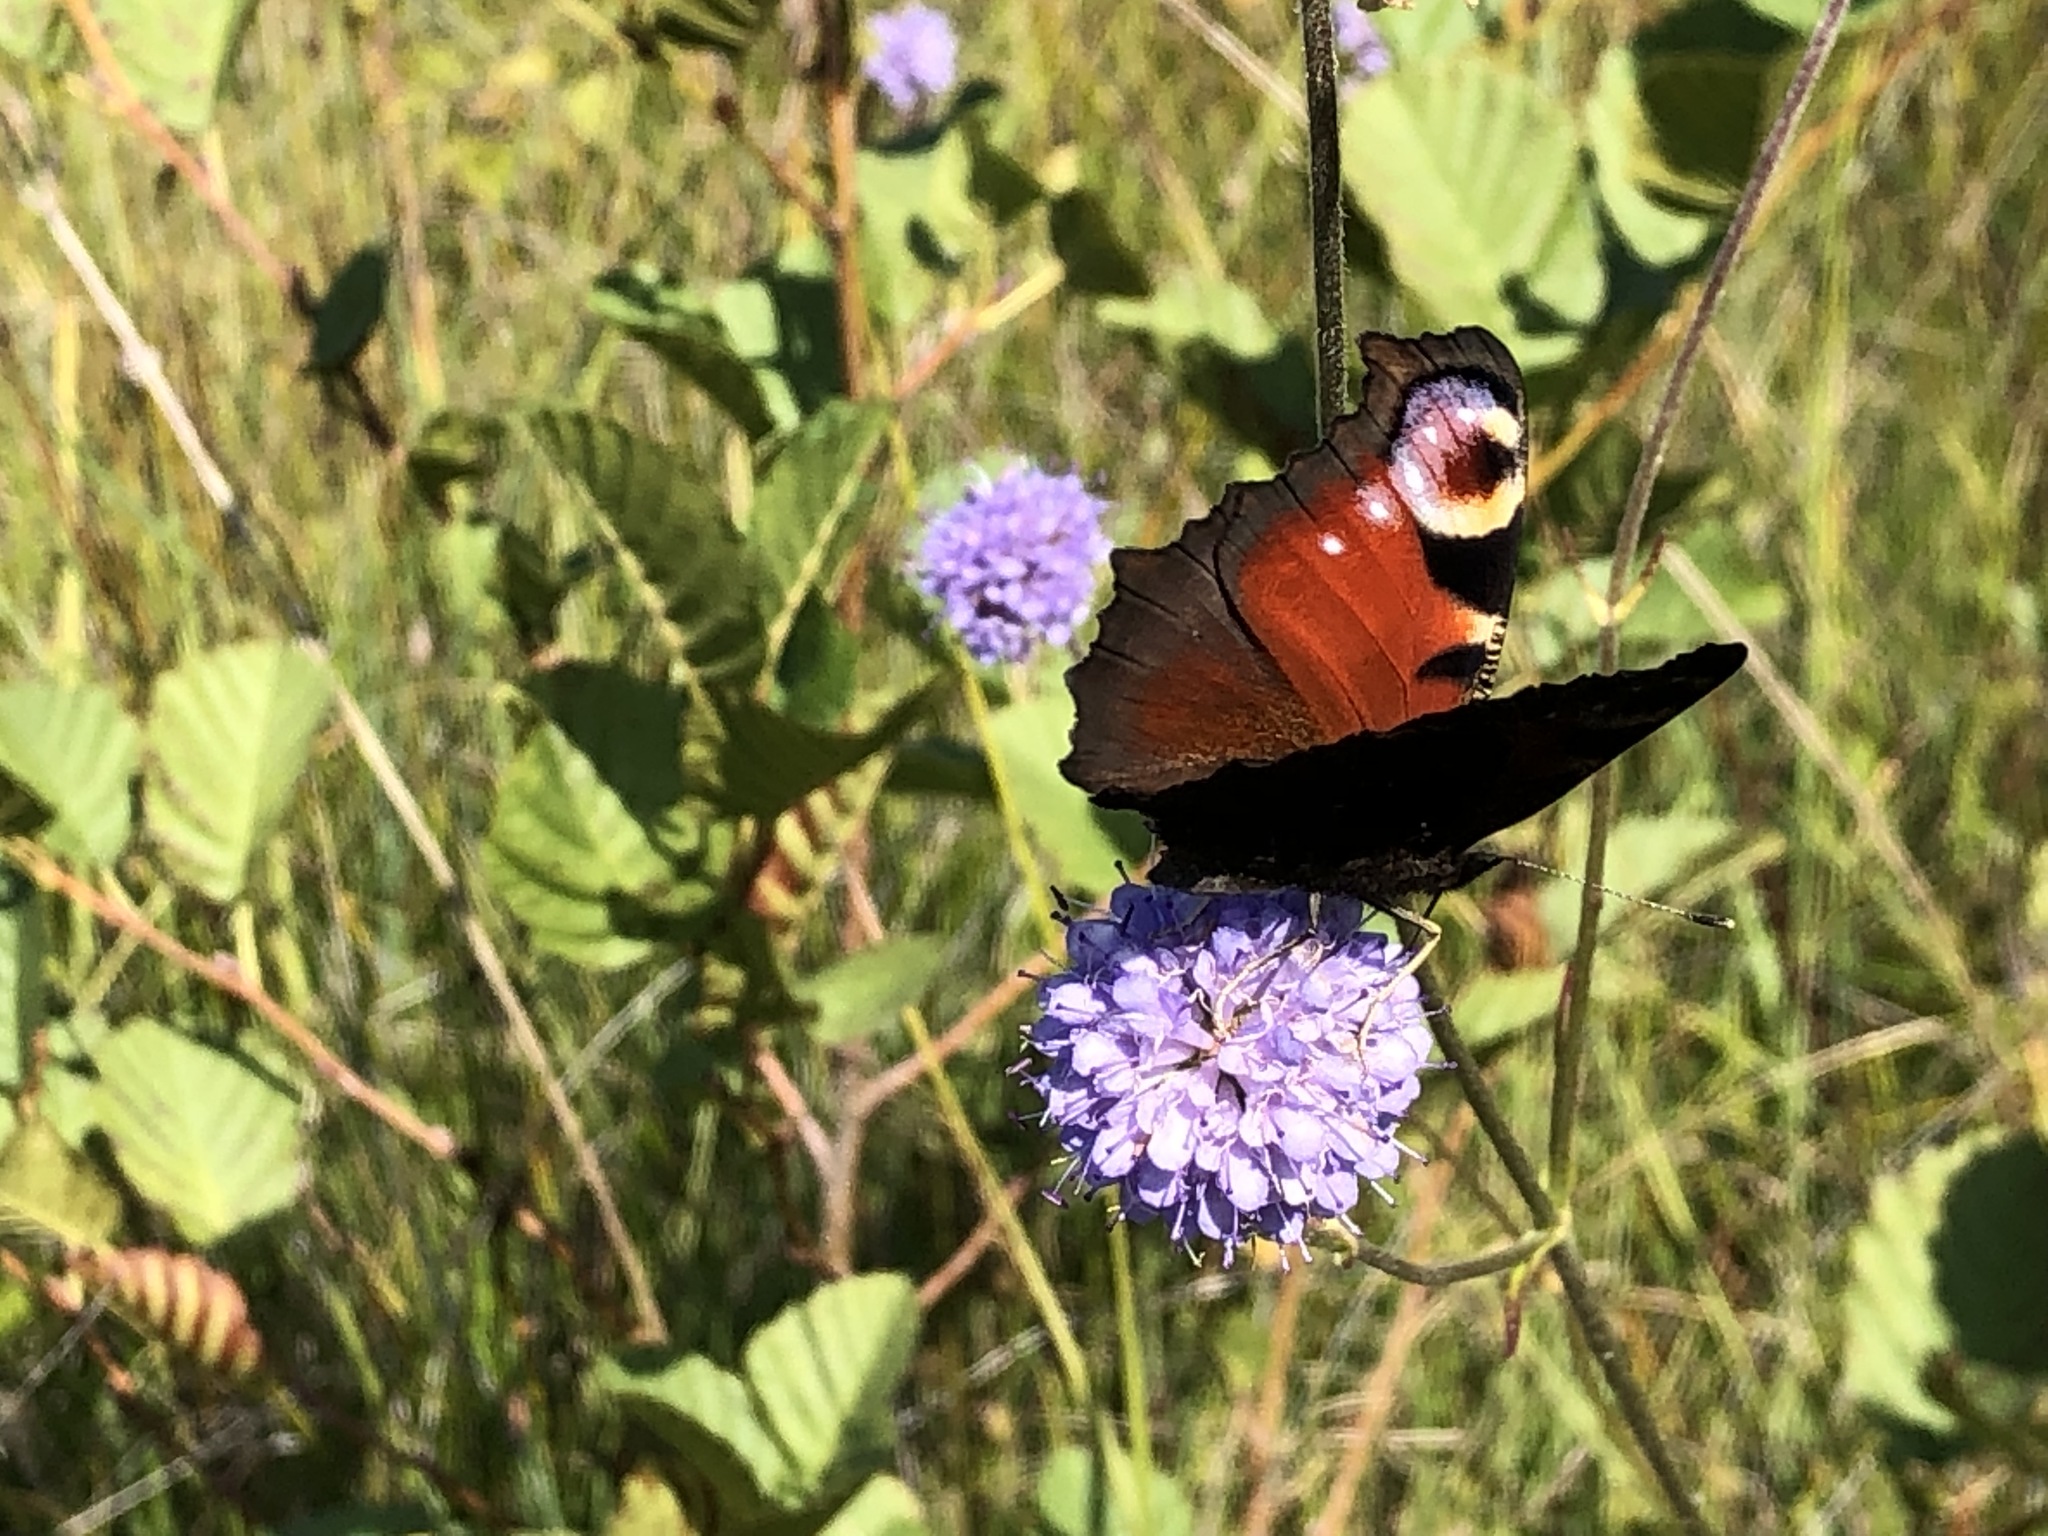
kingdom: Animalia
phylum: Arthropoda
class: Insecta
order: Lepidoptera
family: Nymphalidae
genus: Aglais
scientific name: Aglais io
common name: Peacock
